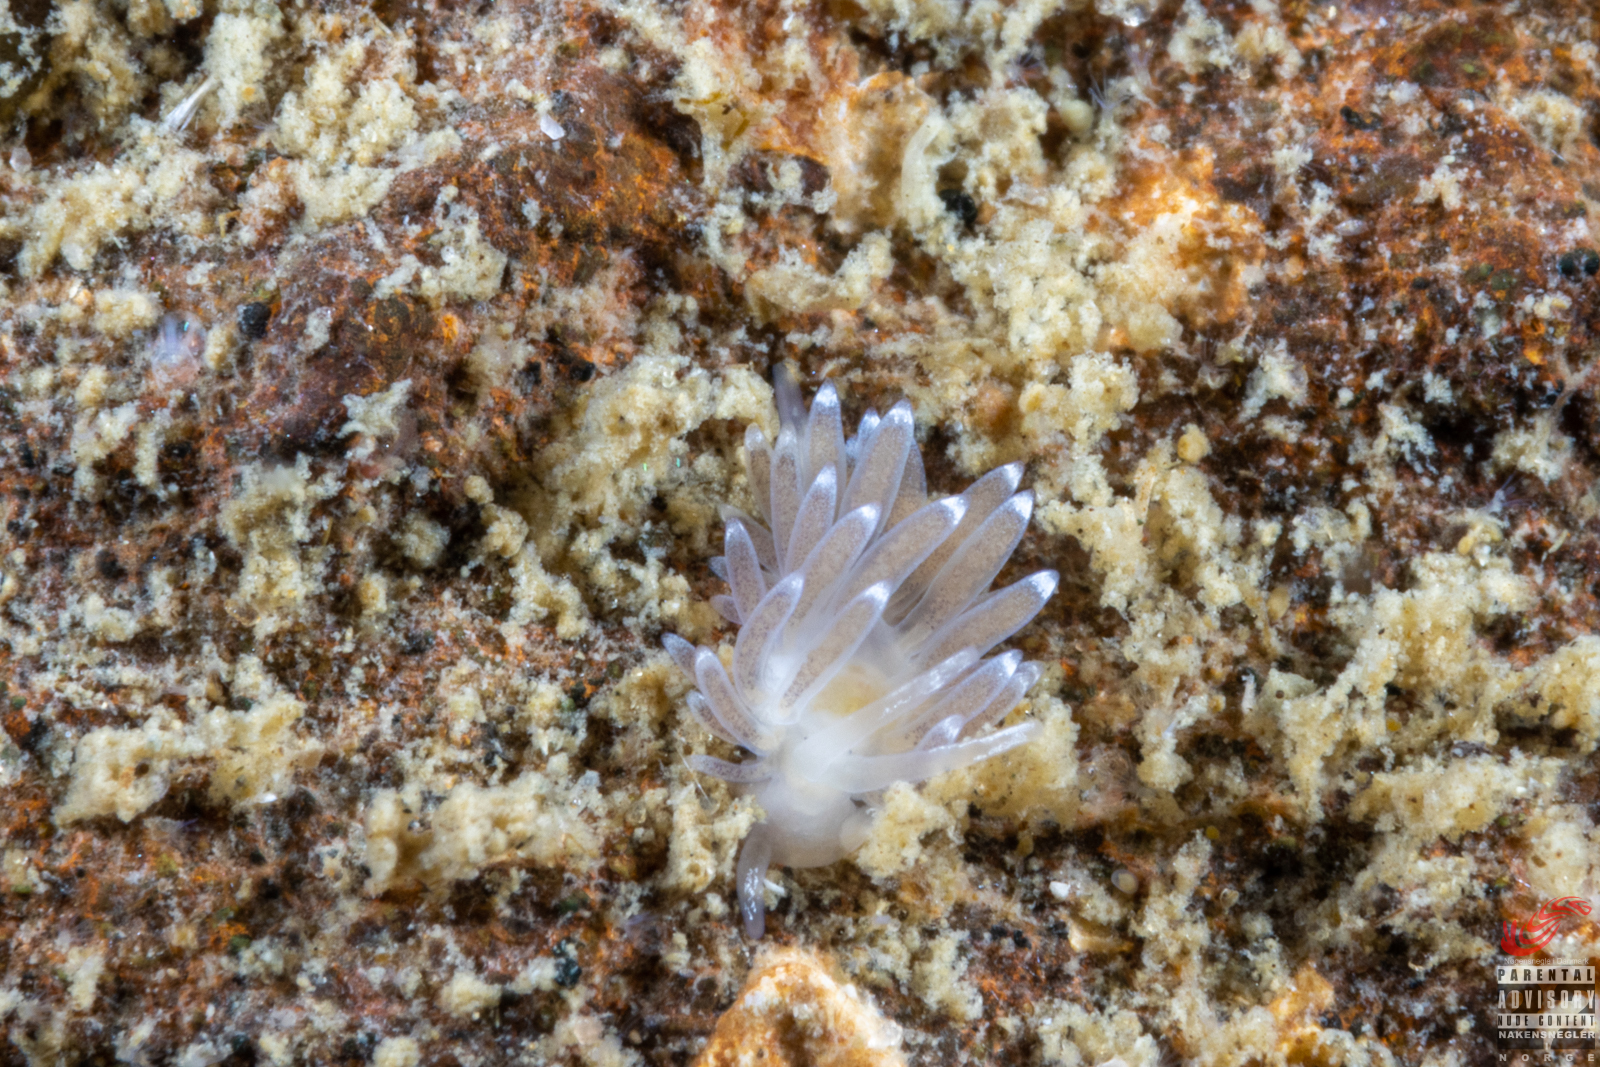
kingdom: Animalia
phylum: Mollusca
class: Gastropoda
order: Nudibranchia
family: Cuthonellidae
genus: Cuthonella
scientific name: Cuthonella concinna
